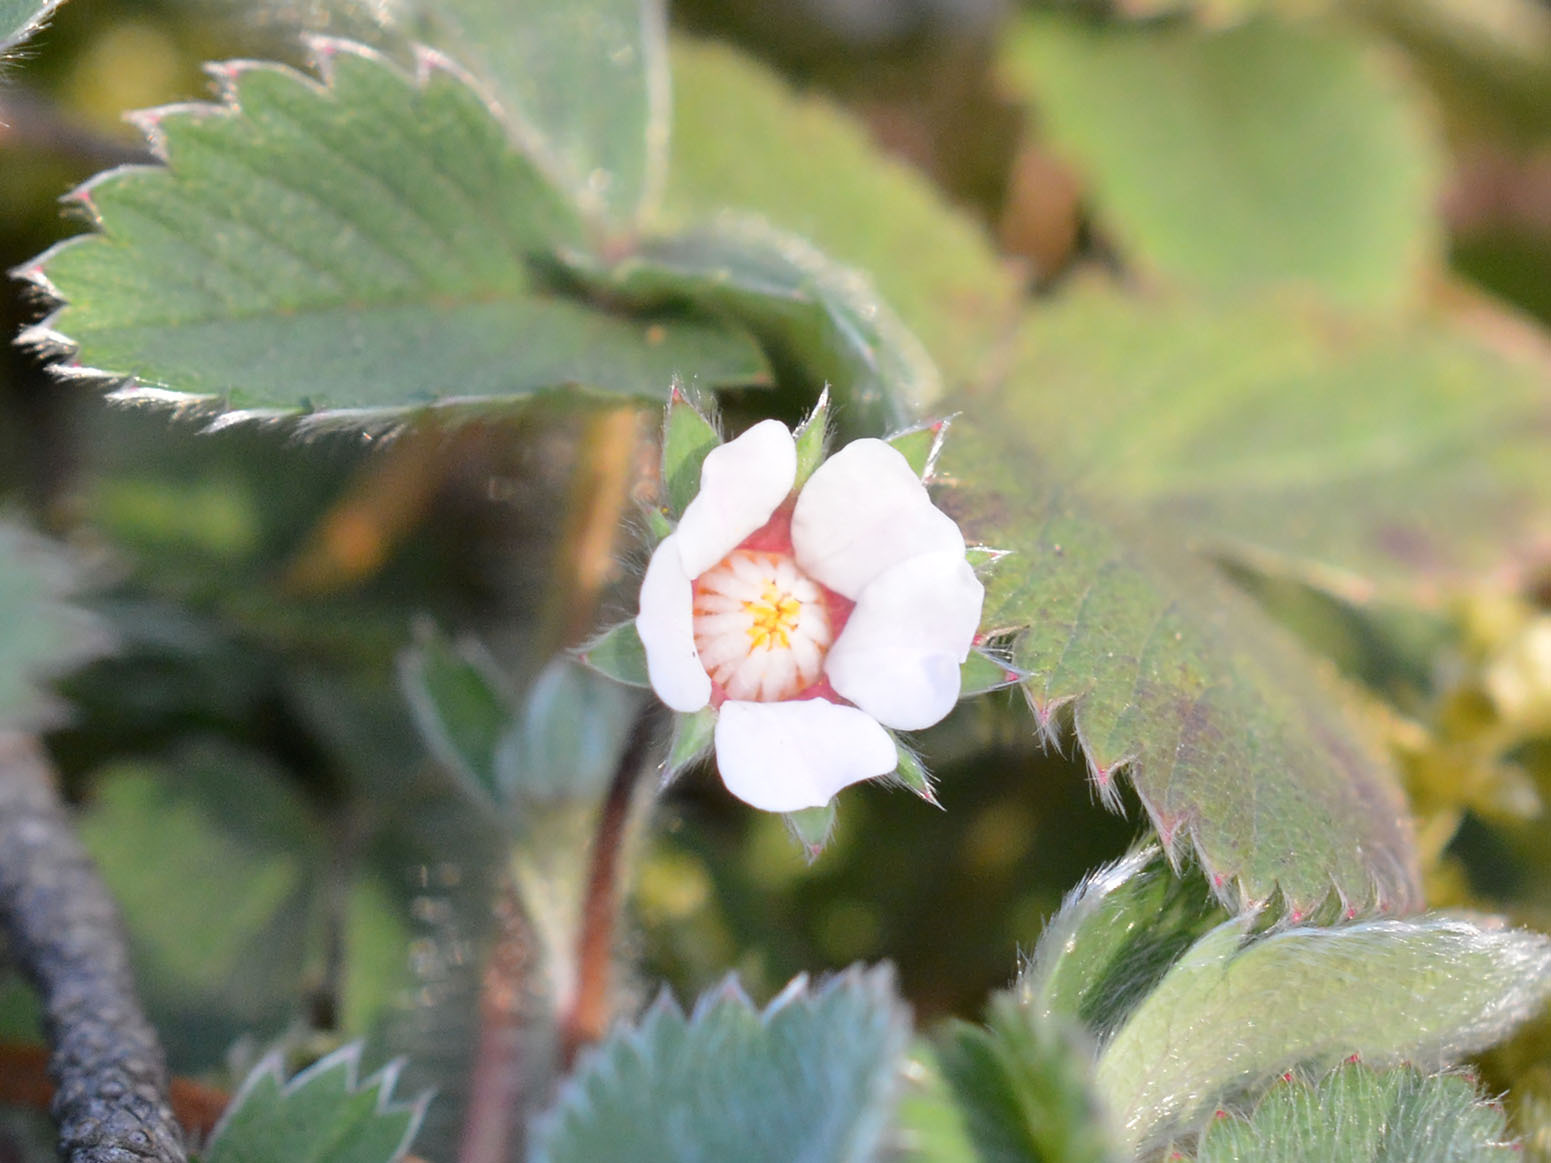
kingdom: Plantae
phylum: Tracheophyta
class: Magnoliopsida
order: Rosales
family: Rosaceae
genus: Potentilla
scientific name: Potentilla micrantha
